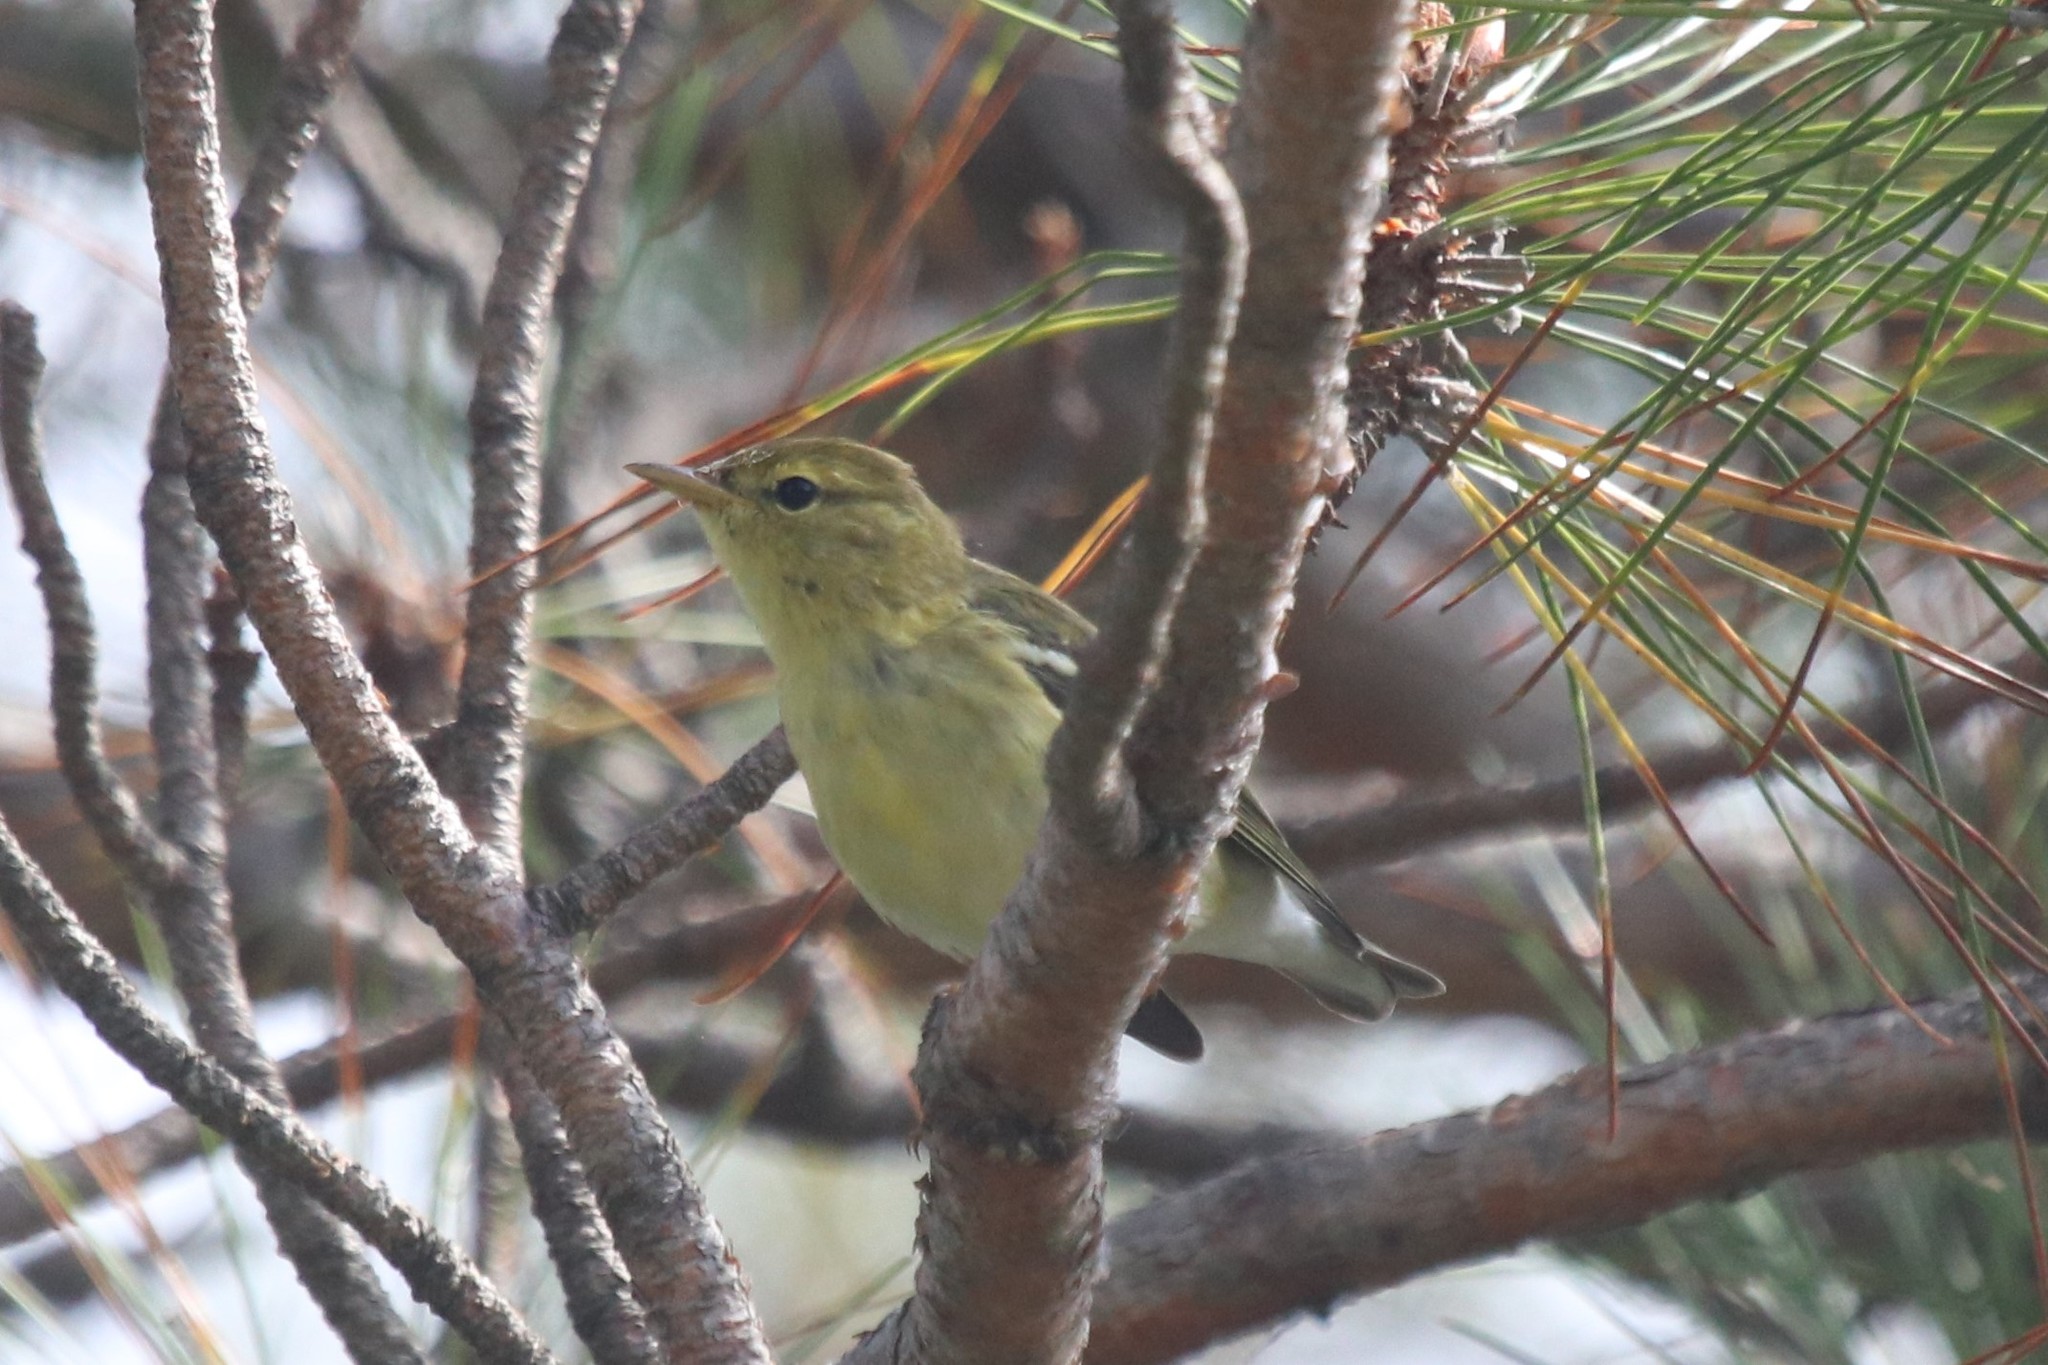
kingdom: Animalia
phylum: Chordata
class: Aves
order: Passeriformes
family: Parulidae
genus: Setophaga
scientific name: Setophaga striata
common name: Blackpoll warbler
